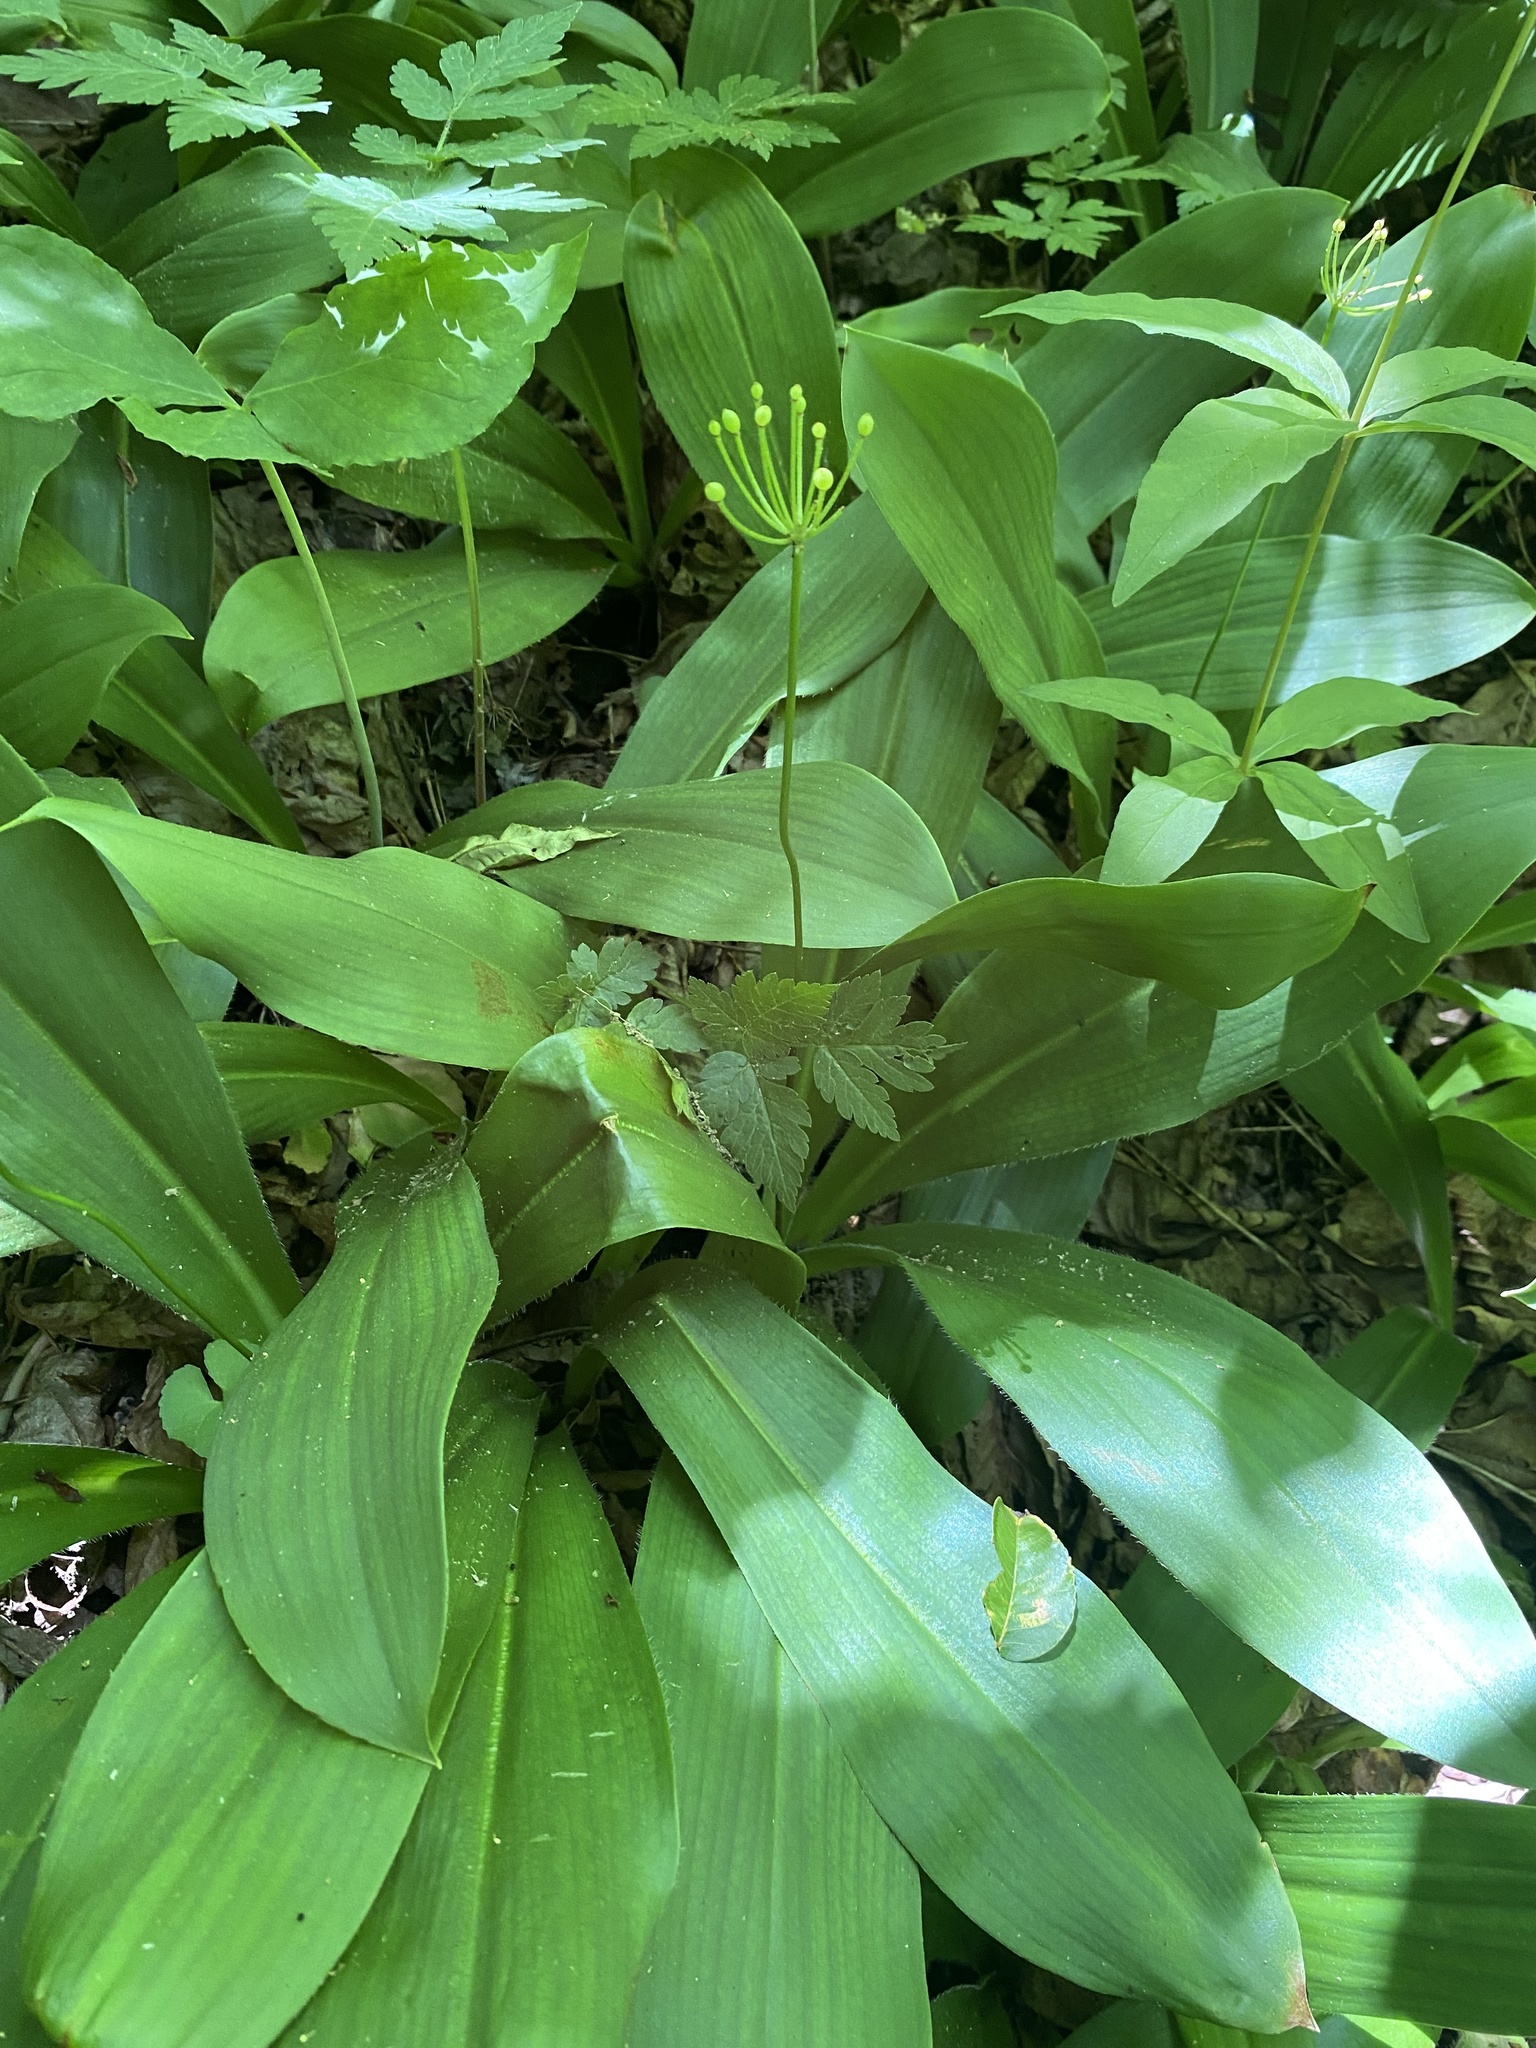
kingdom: Plantae
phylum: Tracheophyta
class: Liliopsida
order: Liliales
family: Liliaceae
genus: Clintonia
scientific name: Clintonia umbellulata
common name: Speckle wood-lily
